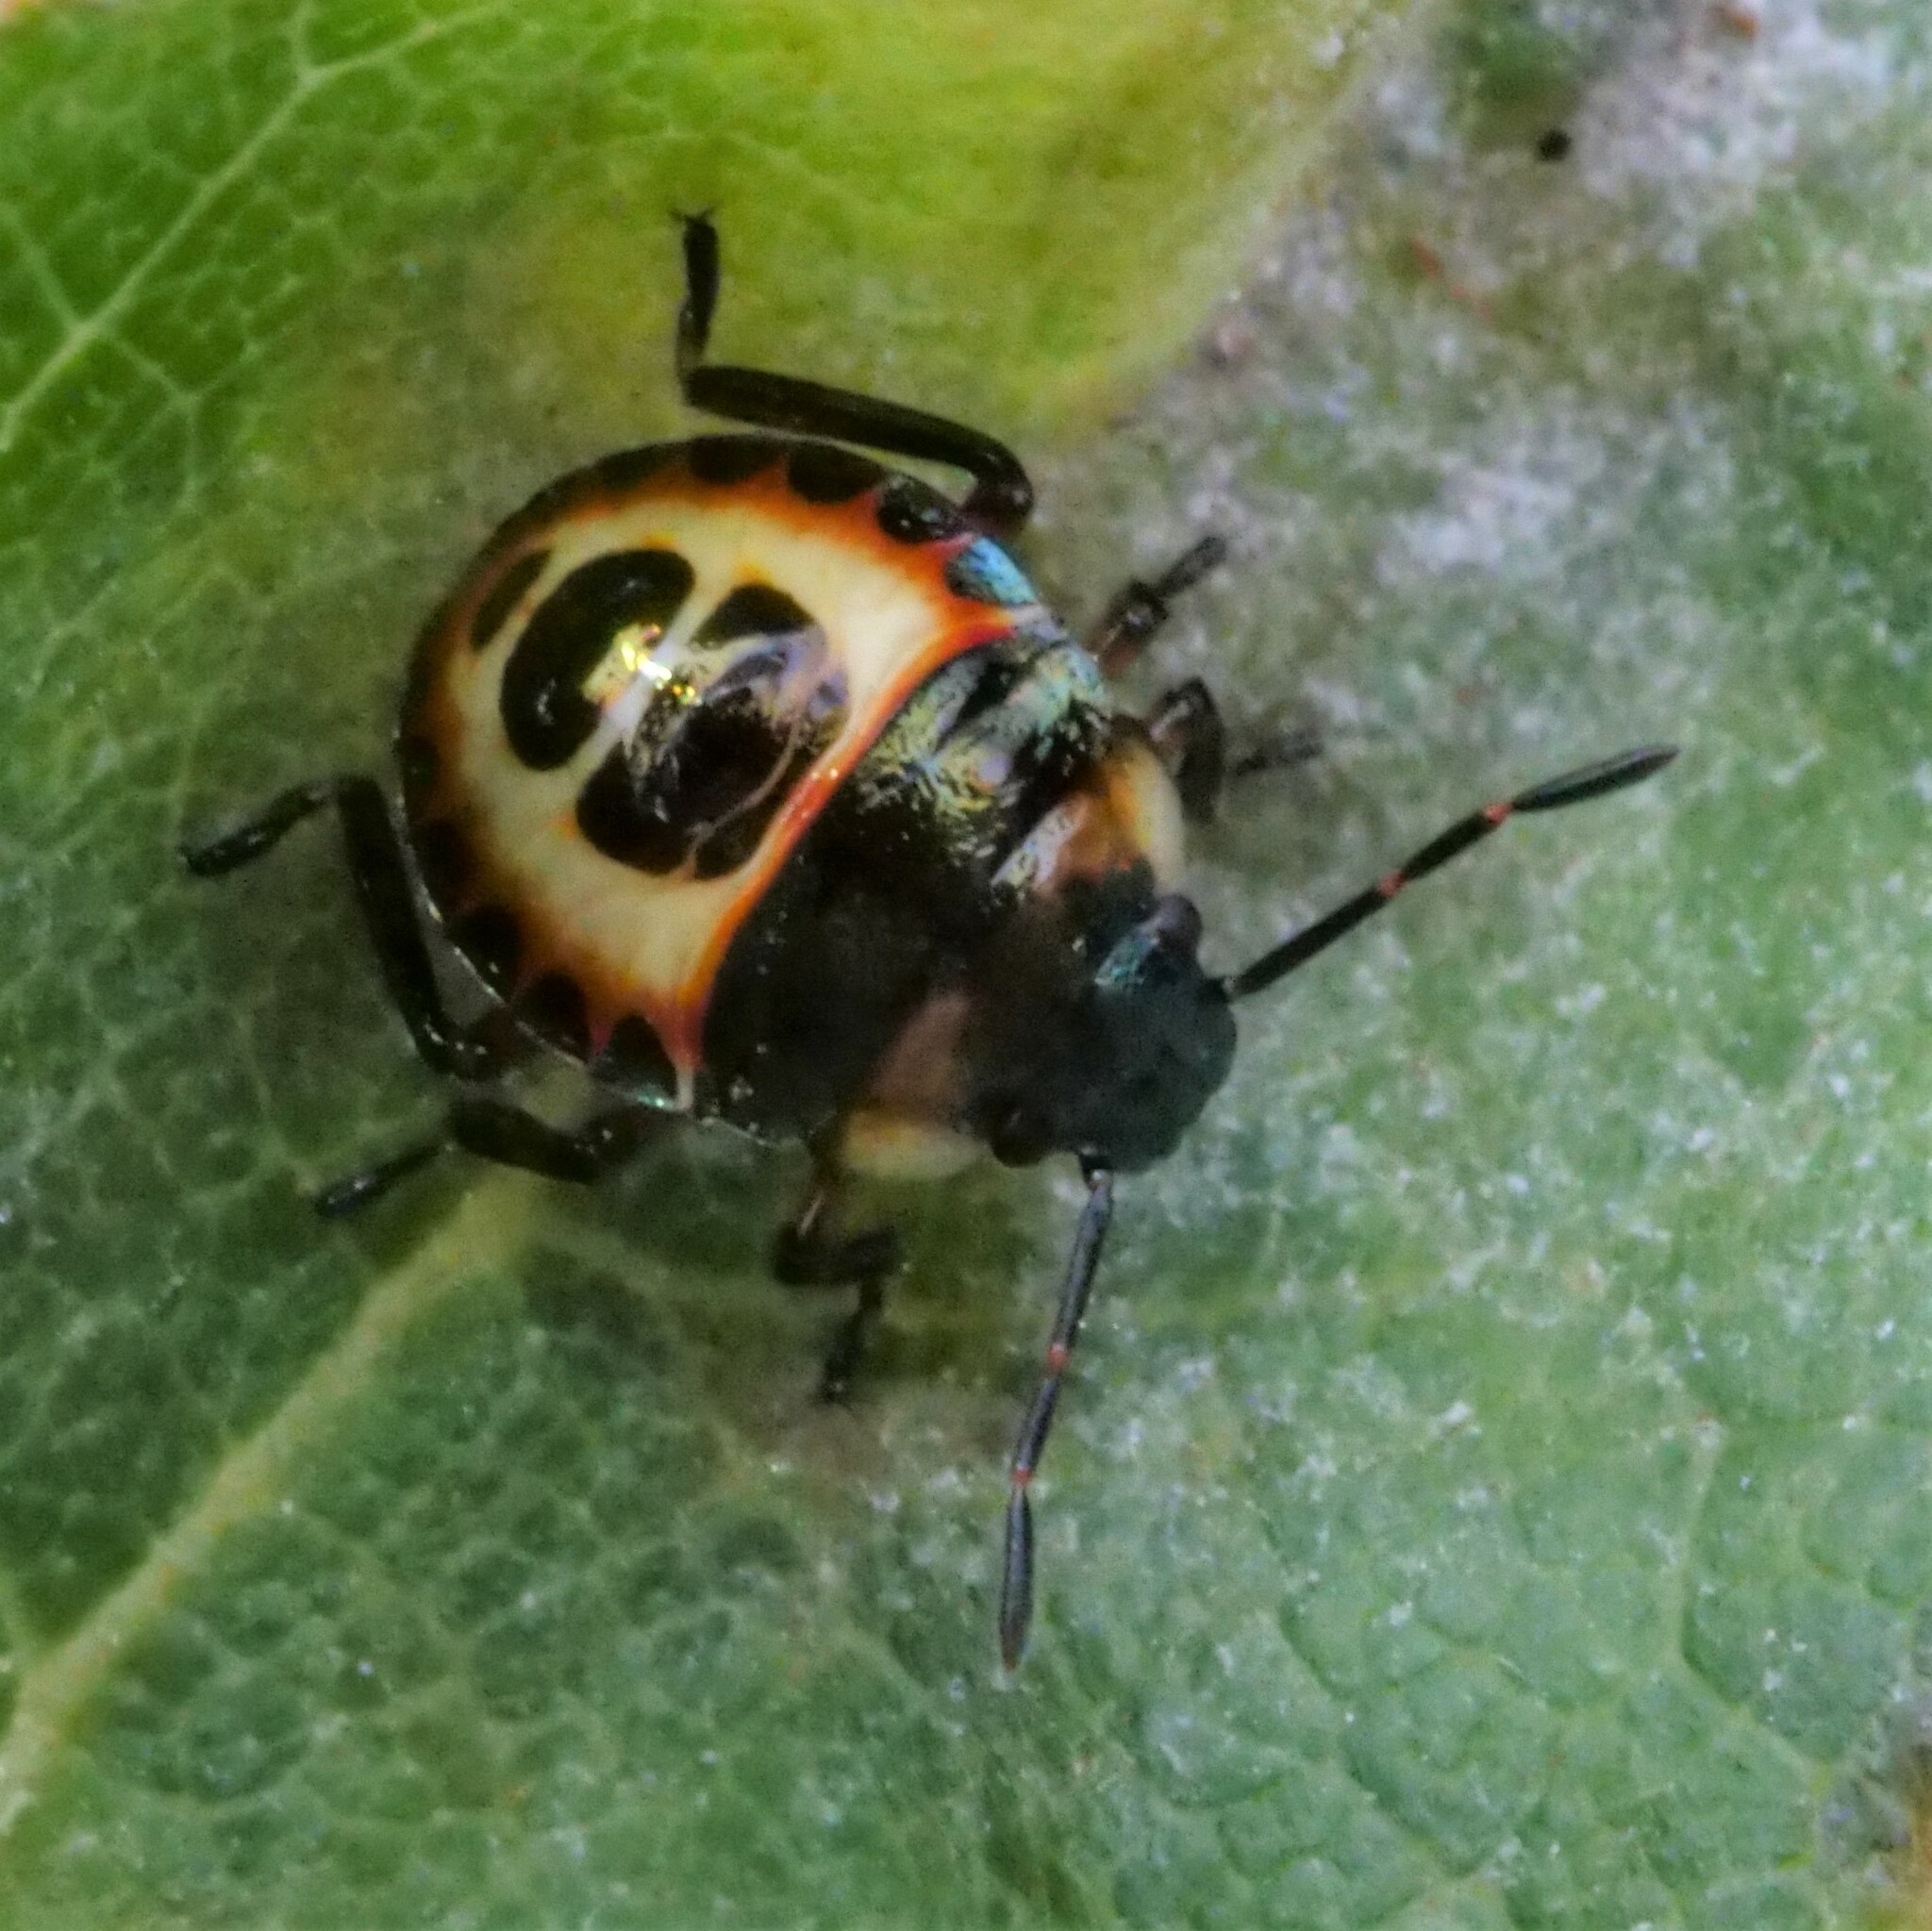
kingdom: Animalia
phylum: Arthropoda
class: Insecta
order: Hemiptera
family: Pentatomidae
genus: Troilus
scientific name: Troilus luridus
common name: Bronze shieldbug
